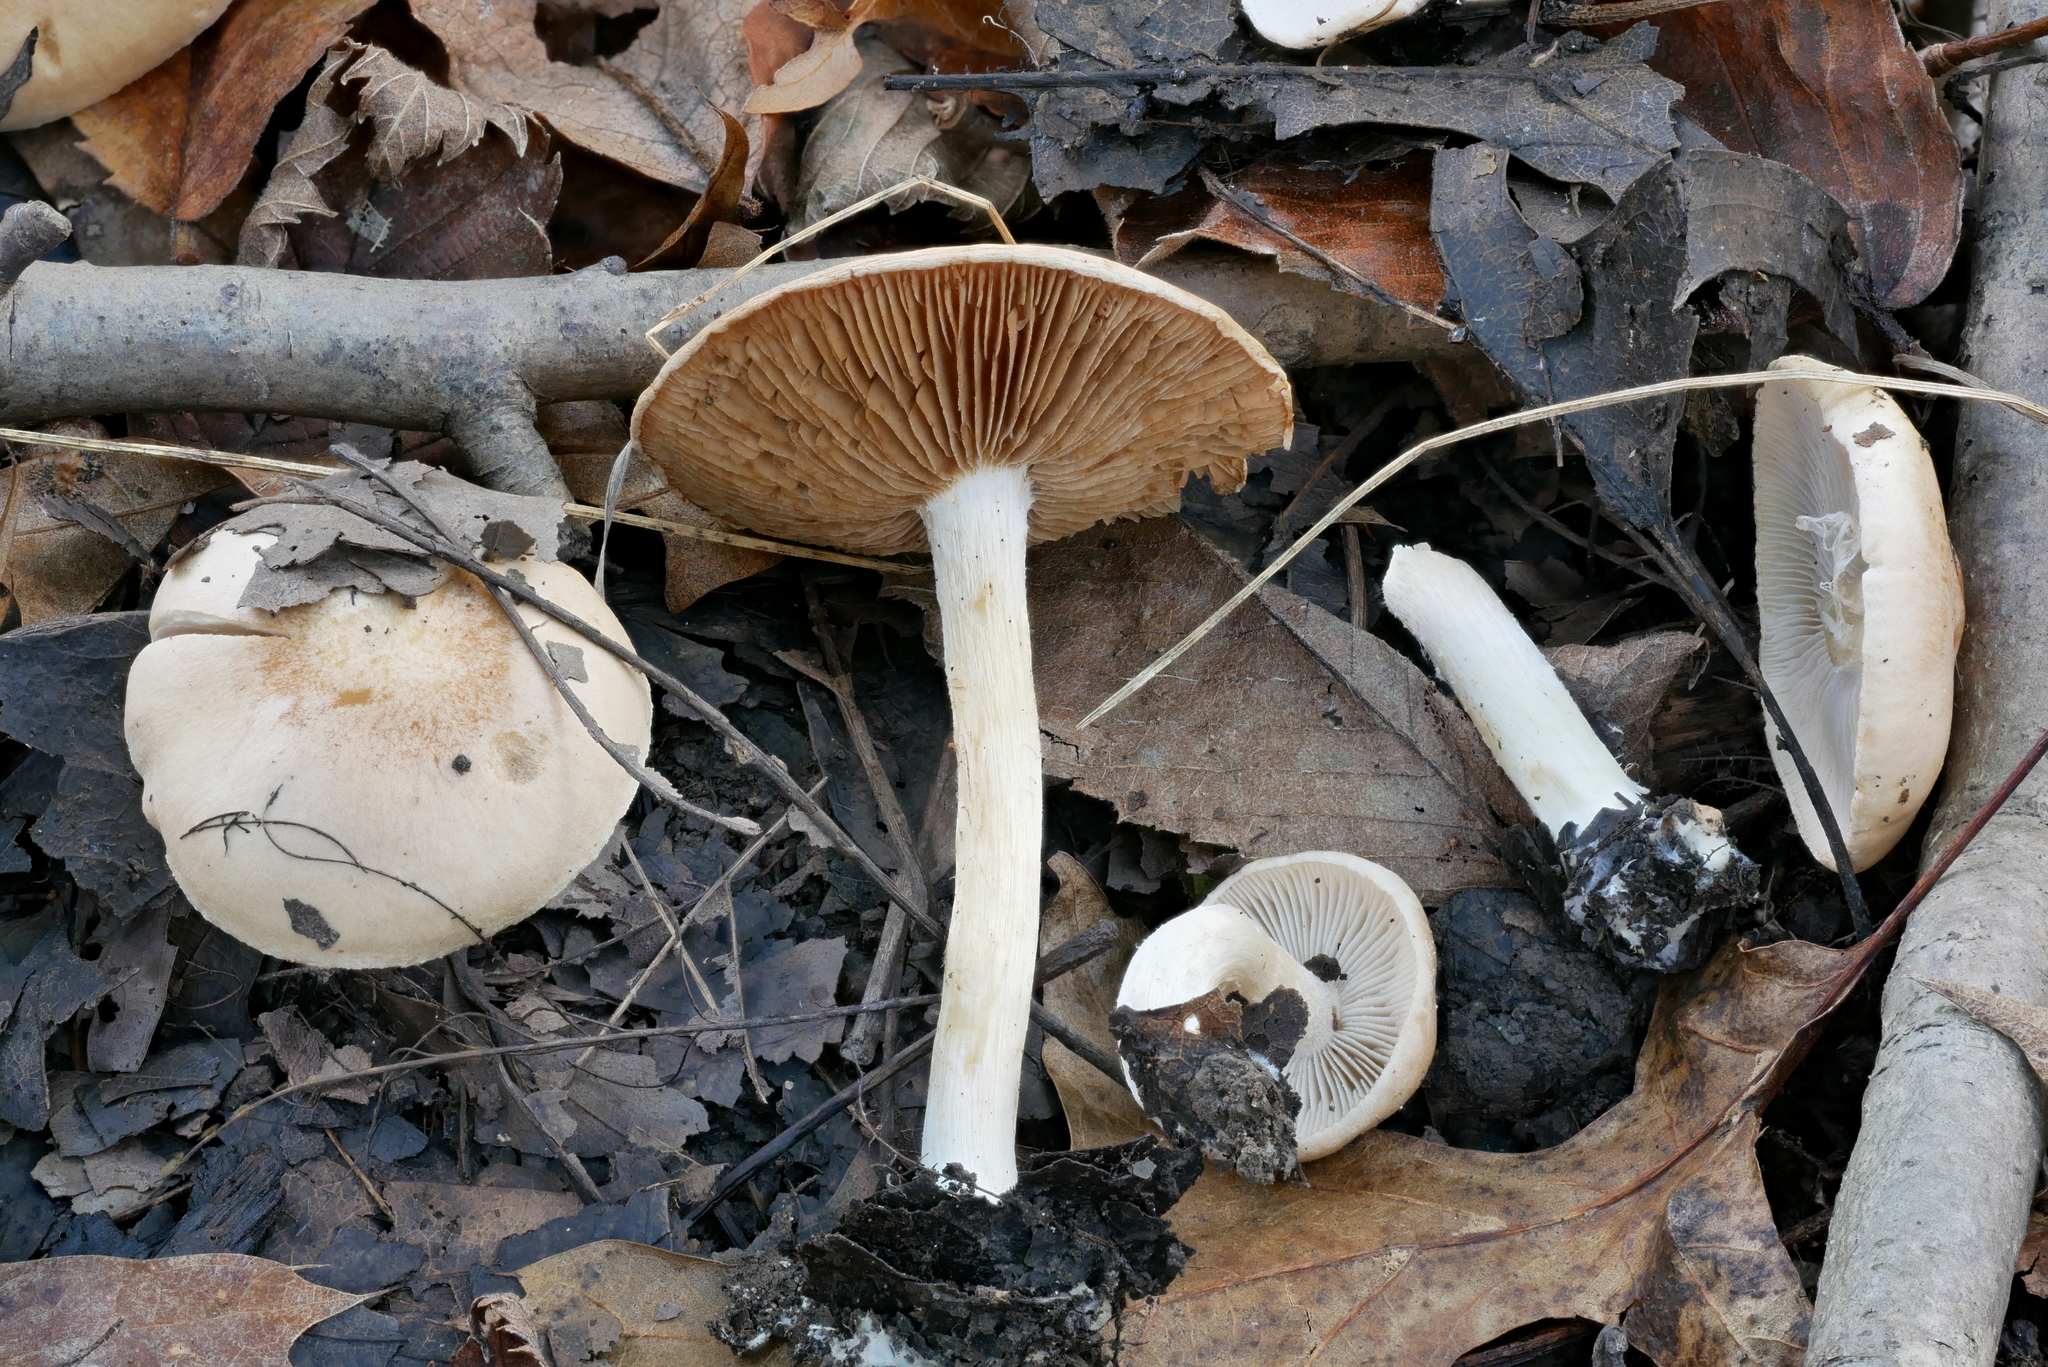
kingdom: Fungi
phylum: Basidiomycota
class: Agaricomycetes
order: Agaricales
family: Hymenogastraceae
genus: Hebeloma
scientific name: Hebeloma sordidum
